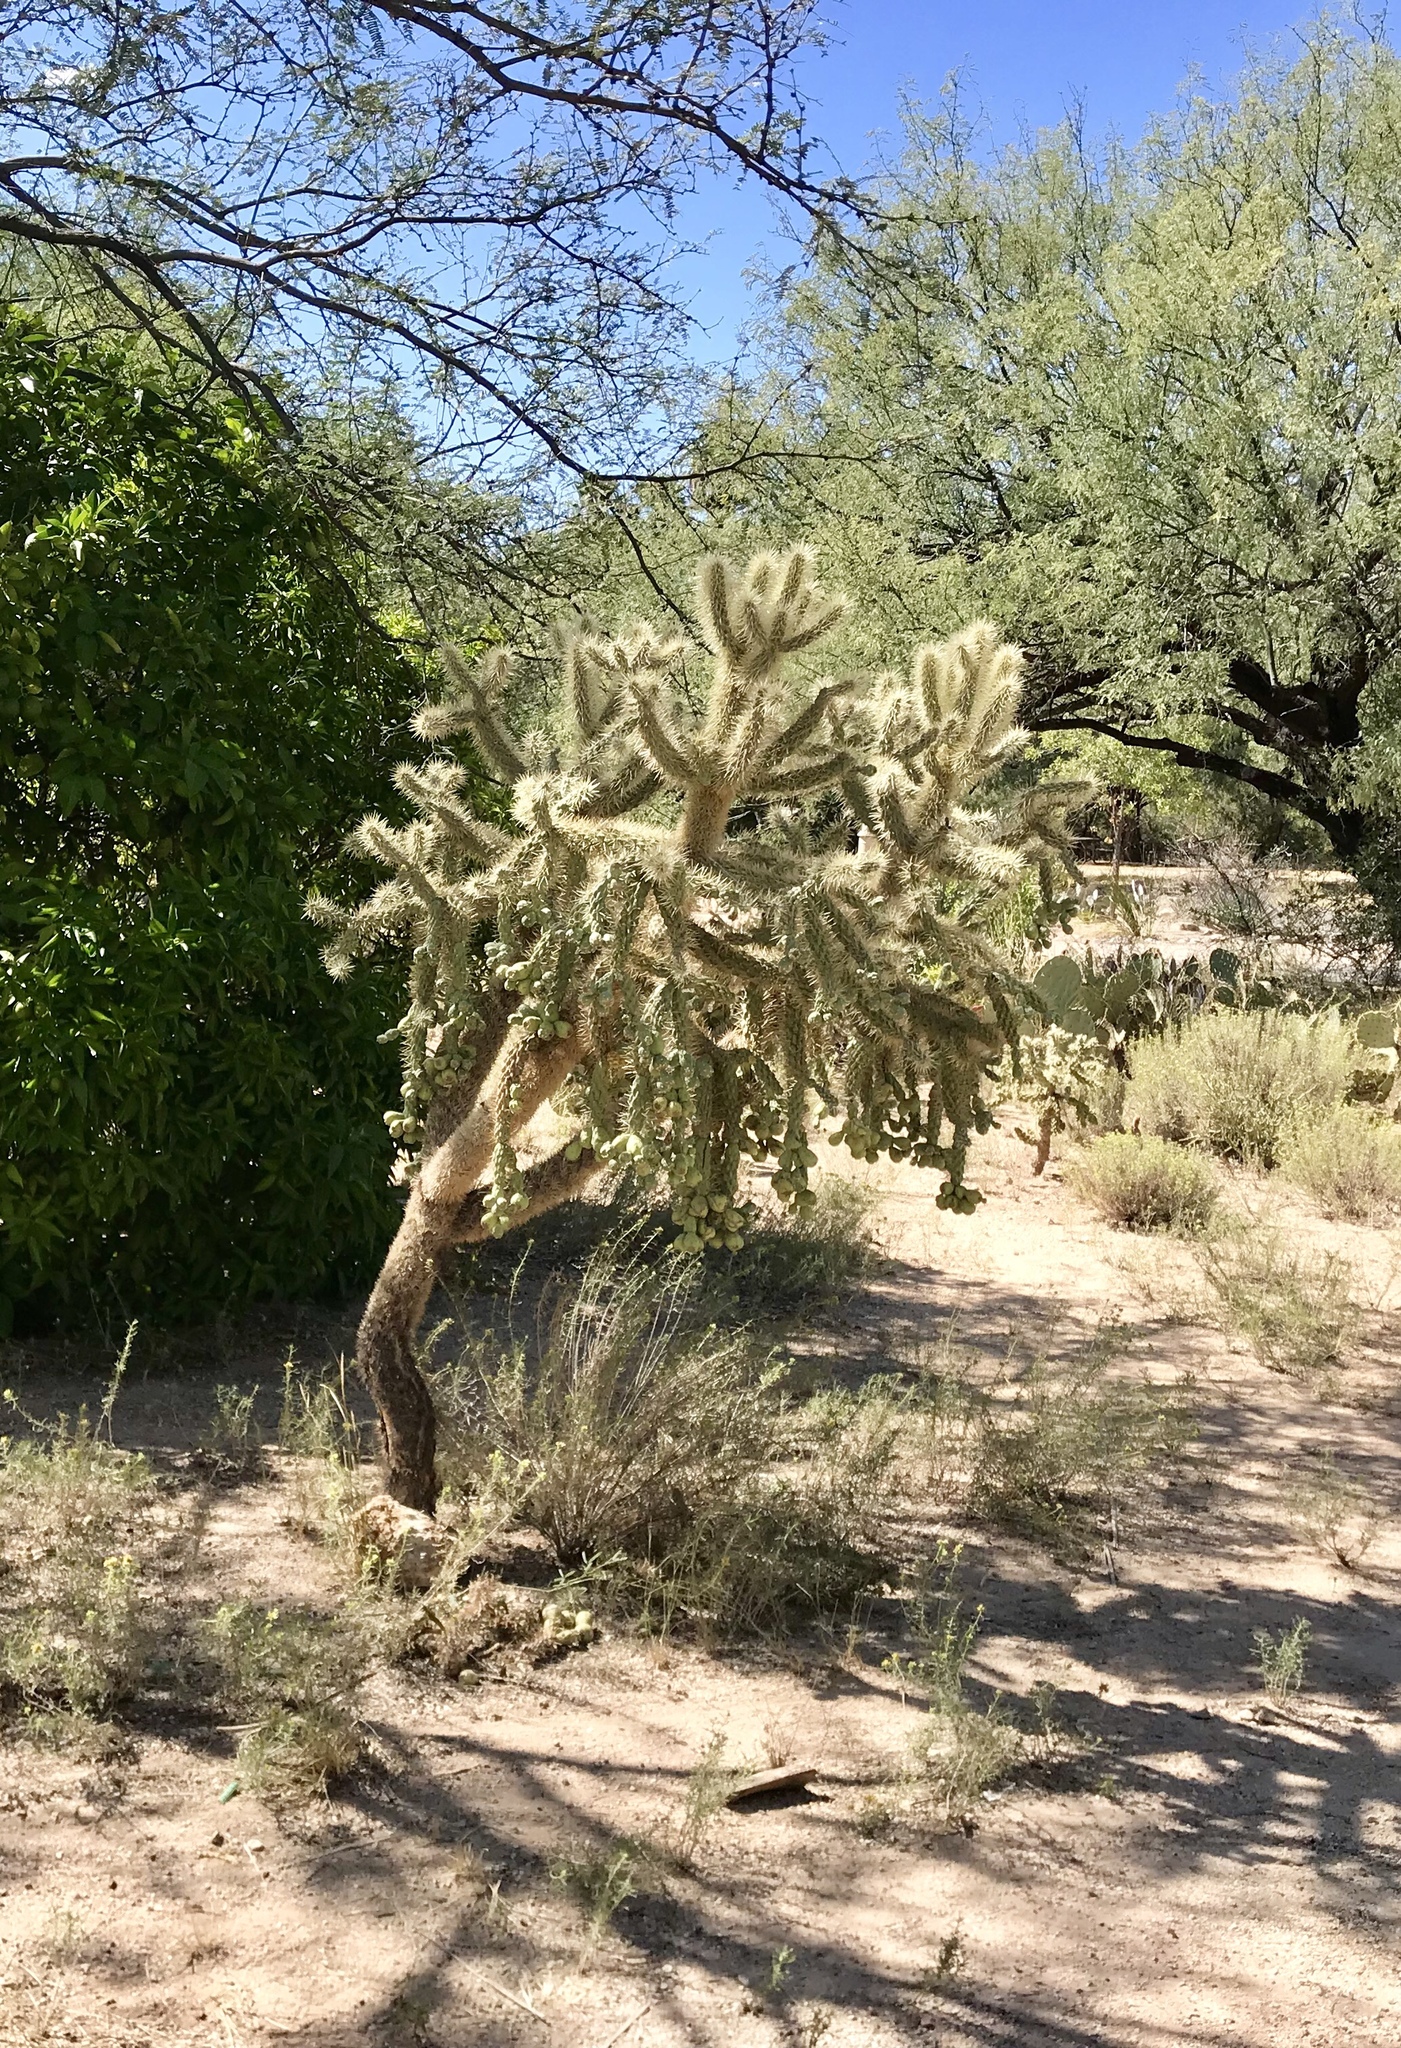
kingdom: Plantae
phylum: Tracheophyta
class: Magnoliopsida
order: Caryophyllales
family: Cactaceae
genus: Cylindropuntia
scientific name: Cylindropuntia fulgida
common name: Jumping cholla
